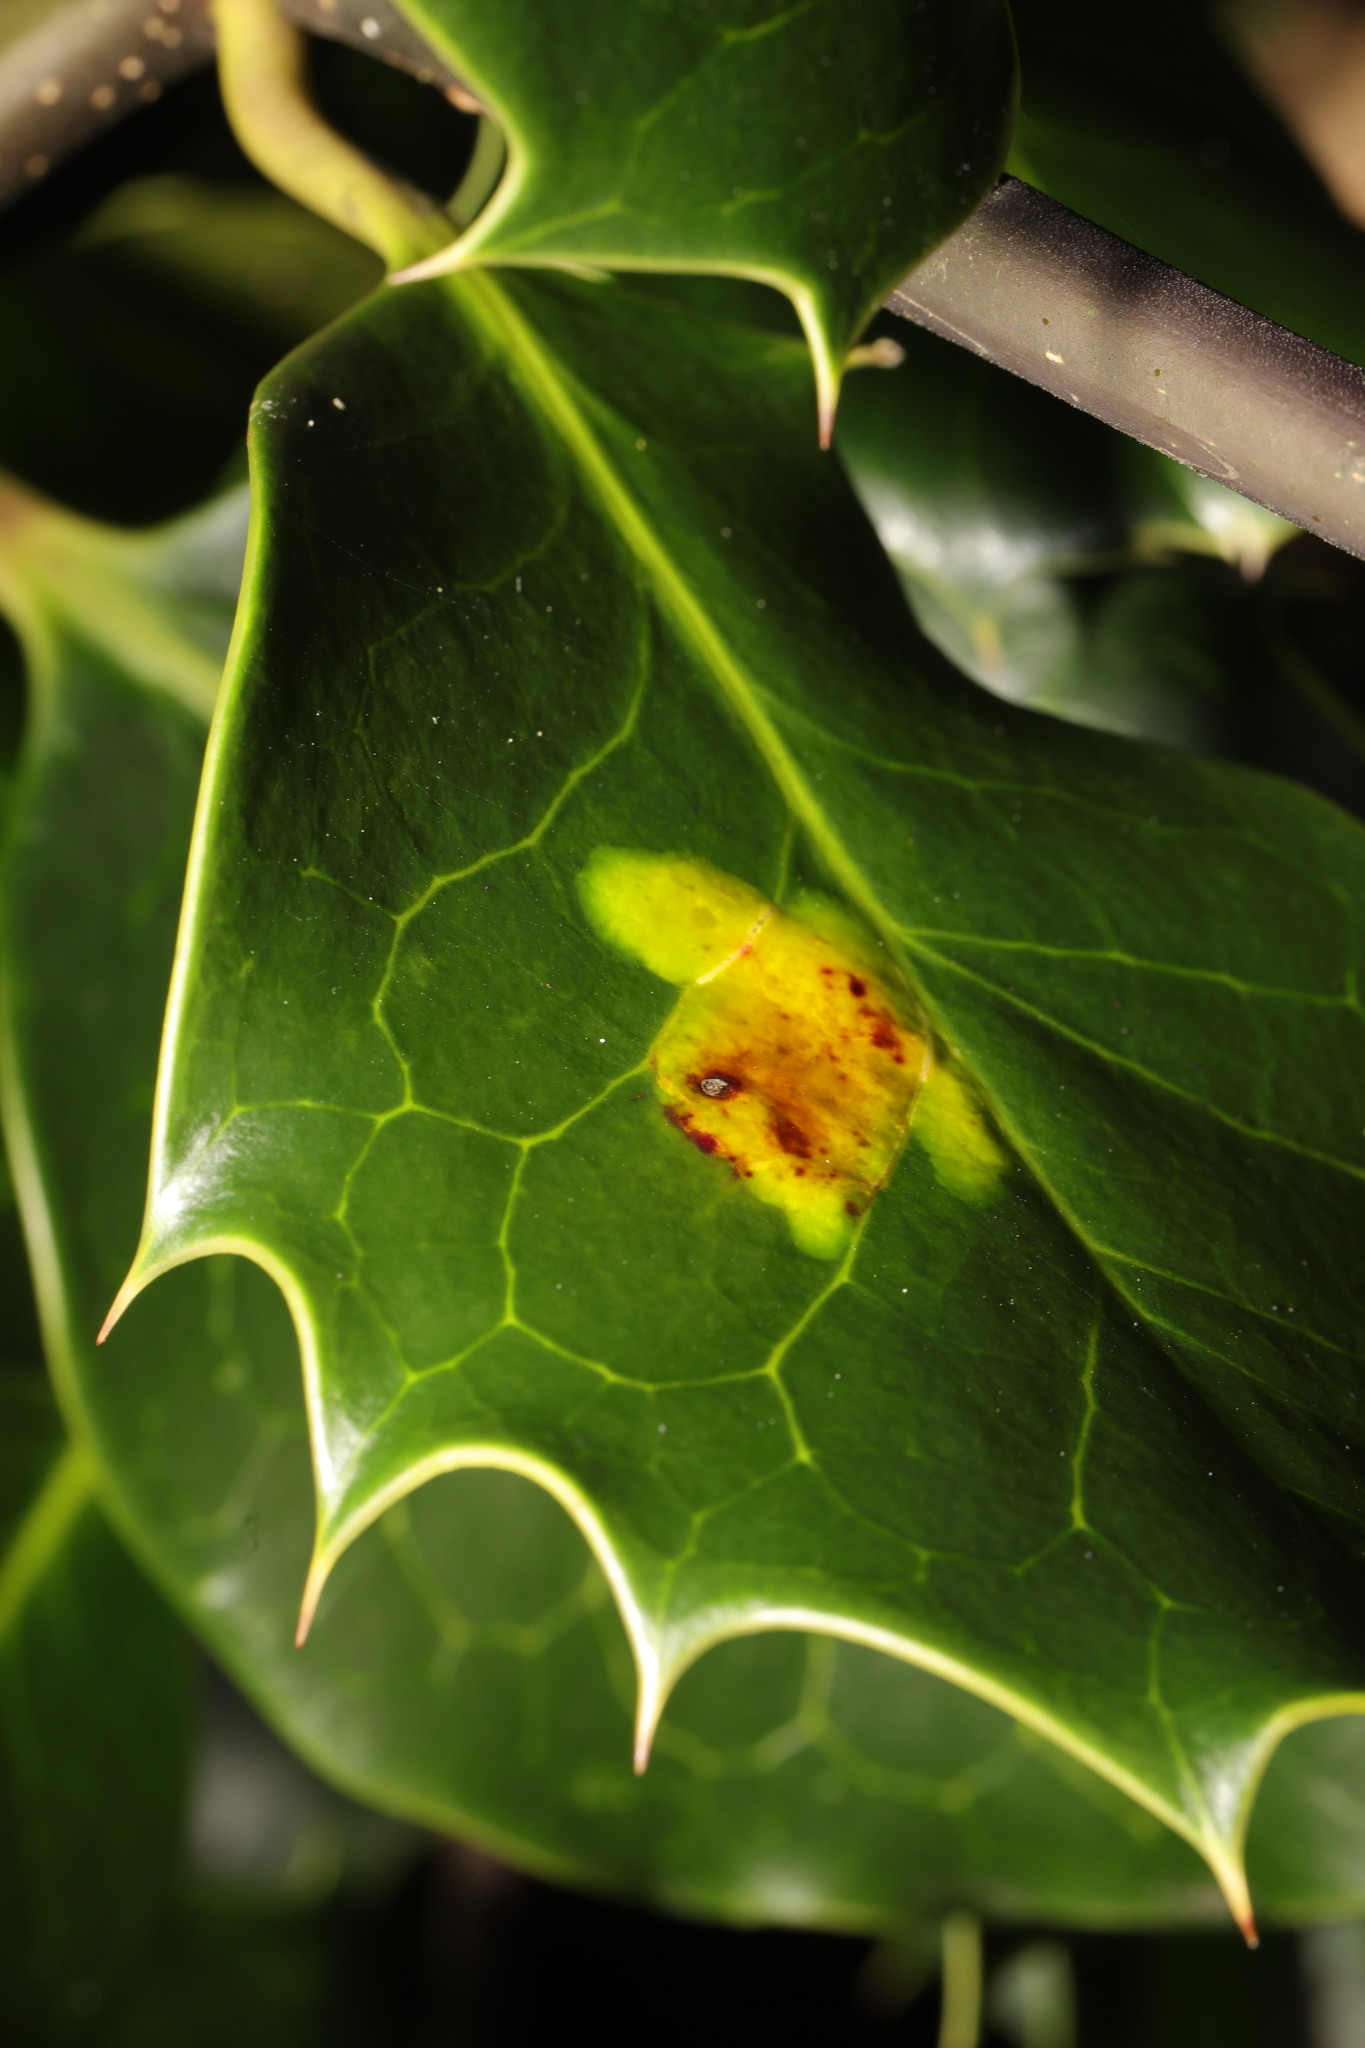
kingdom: Animalia
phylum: Arthropoda
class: Insecta
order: Diptera
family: Agromyzidae
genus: Phytomyza
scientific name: Phytomyza ilicis
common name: Holly leafminer
